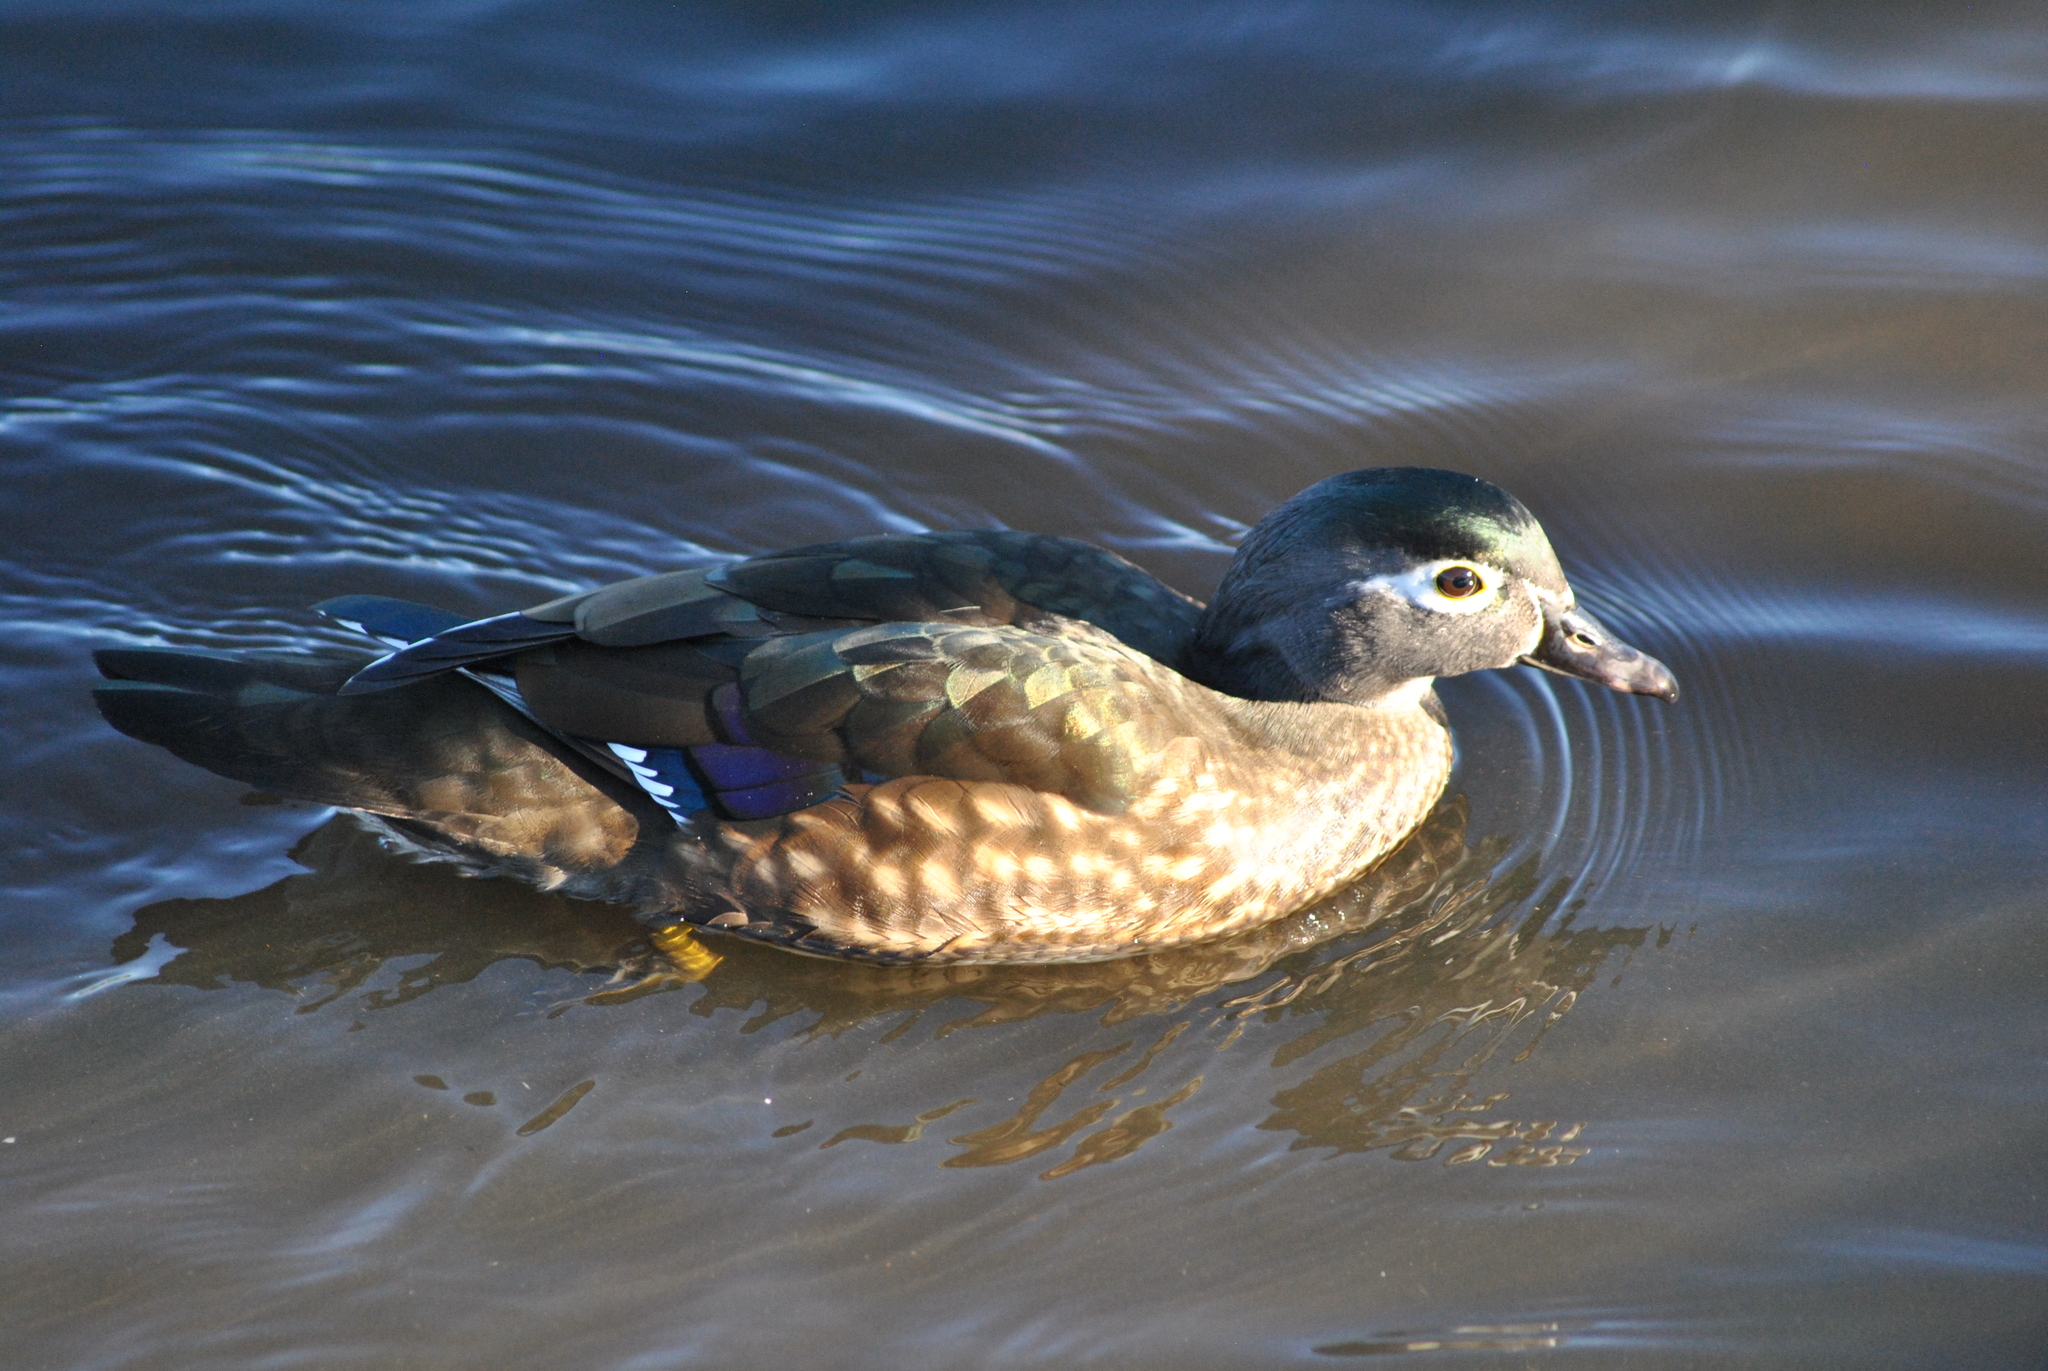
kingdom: Animalia
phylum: Chordata
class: Aves
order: Anseriformes
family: Anatidae
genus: Aix
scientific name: Aix sponsa
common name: Wood duck
